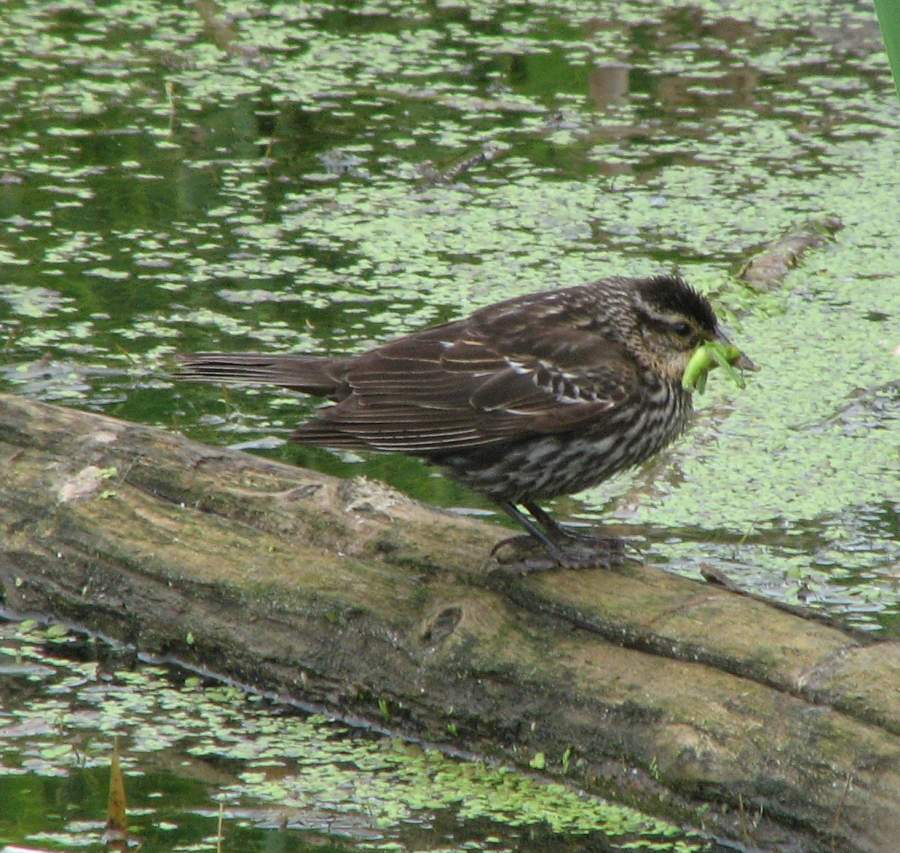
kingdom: Animalia
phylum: Chordata
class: Aves
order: Passeriformes
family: Icteridae
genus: Agelaius
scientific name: Agelaius phoeniceus
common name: Red-winged blackbird
